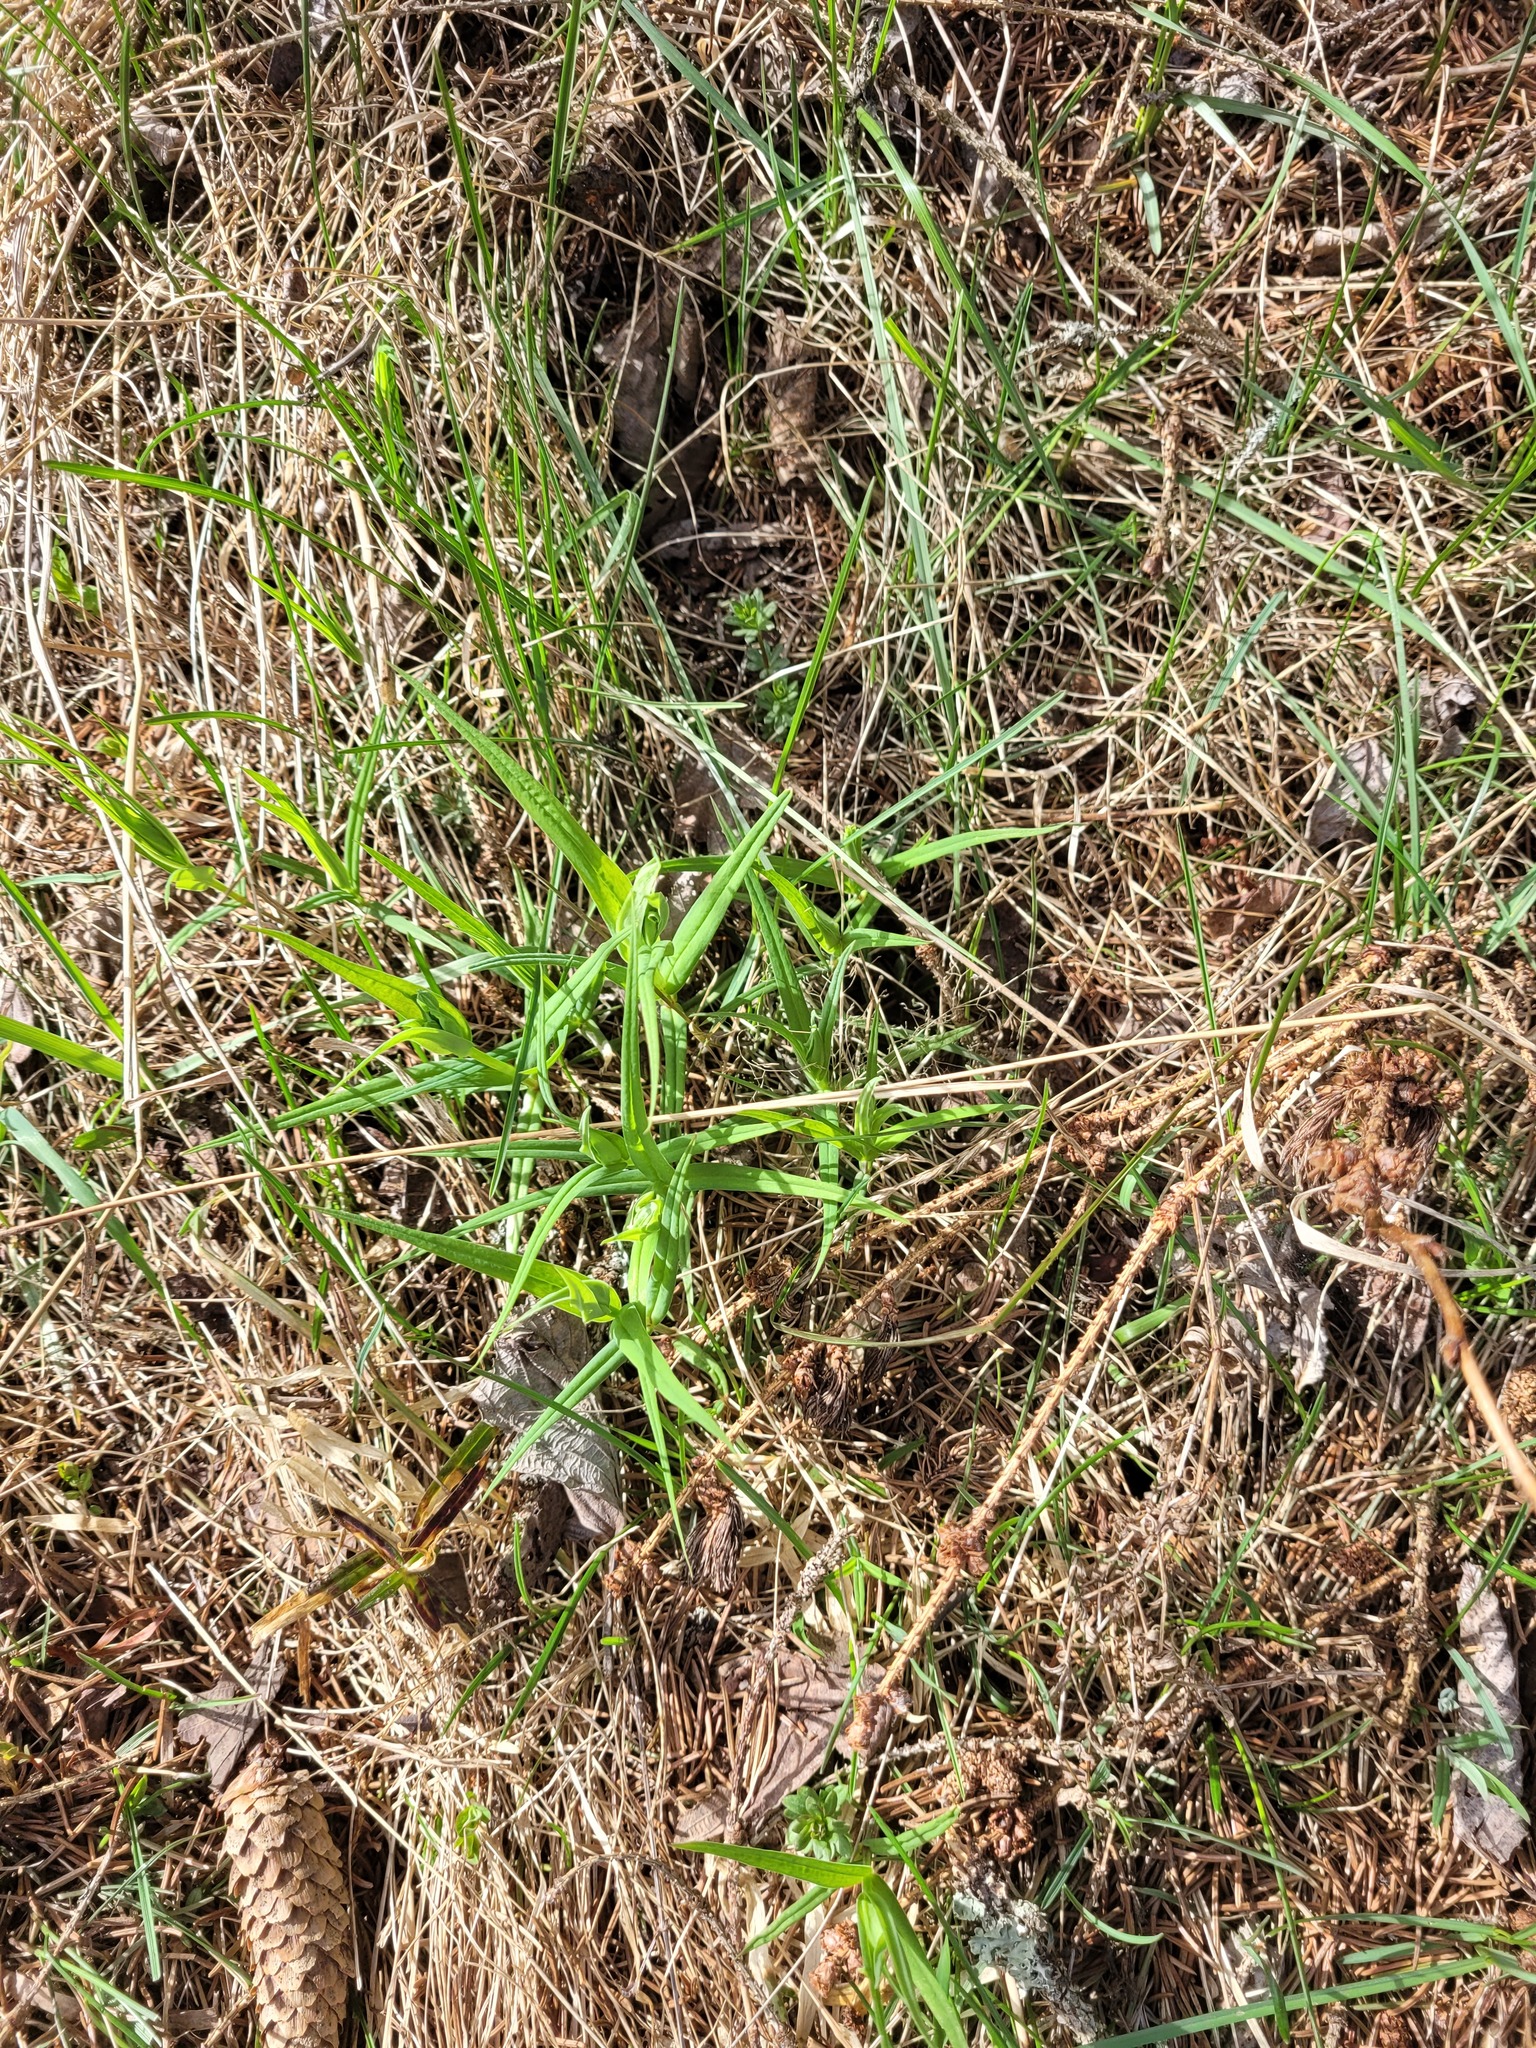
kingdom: Plantae
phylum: Tracheophyta
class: Magnoliopsida
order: Caryophyllales
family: Caryophyllaceae
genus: Rabelera
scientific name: Rabelera holostea
